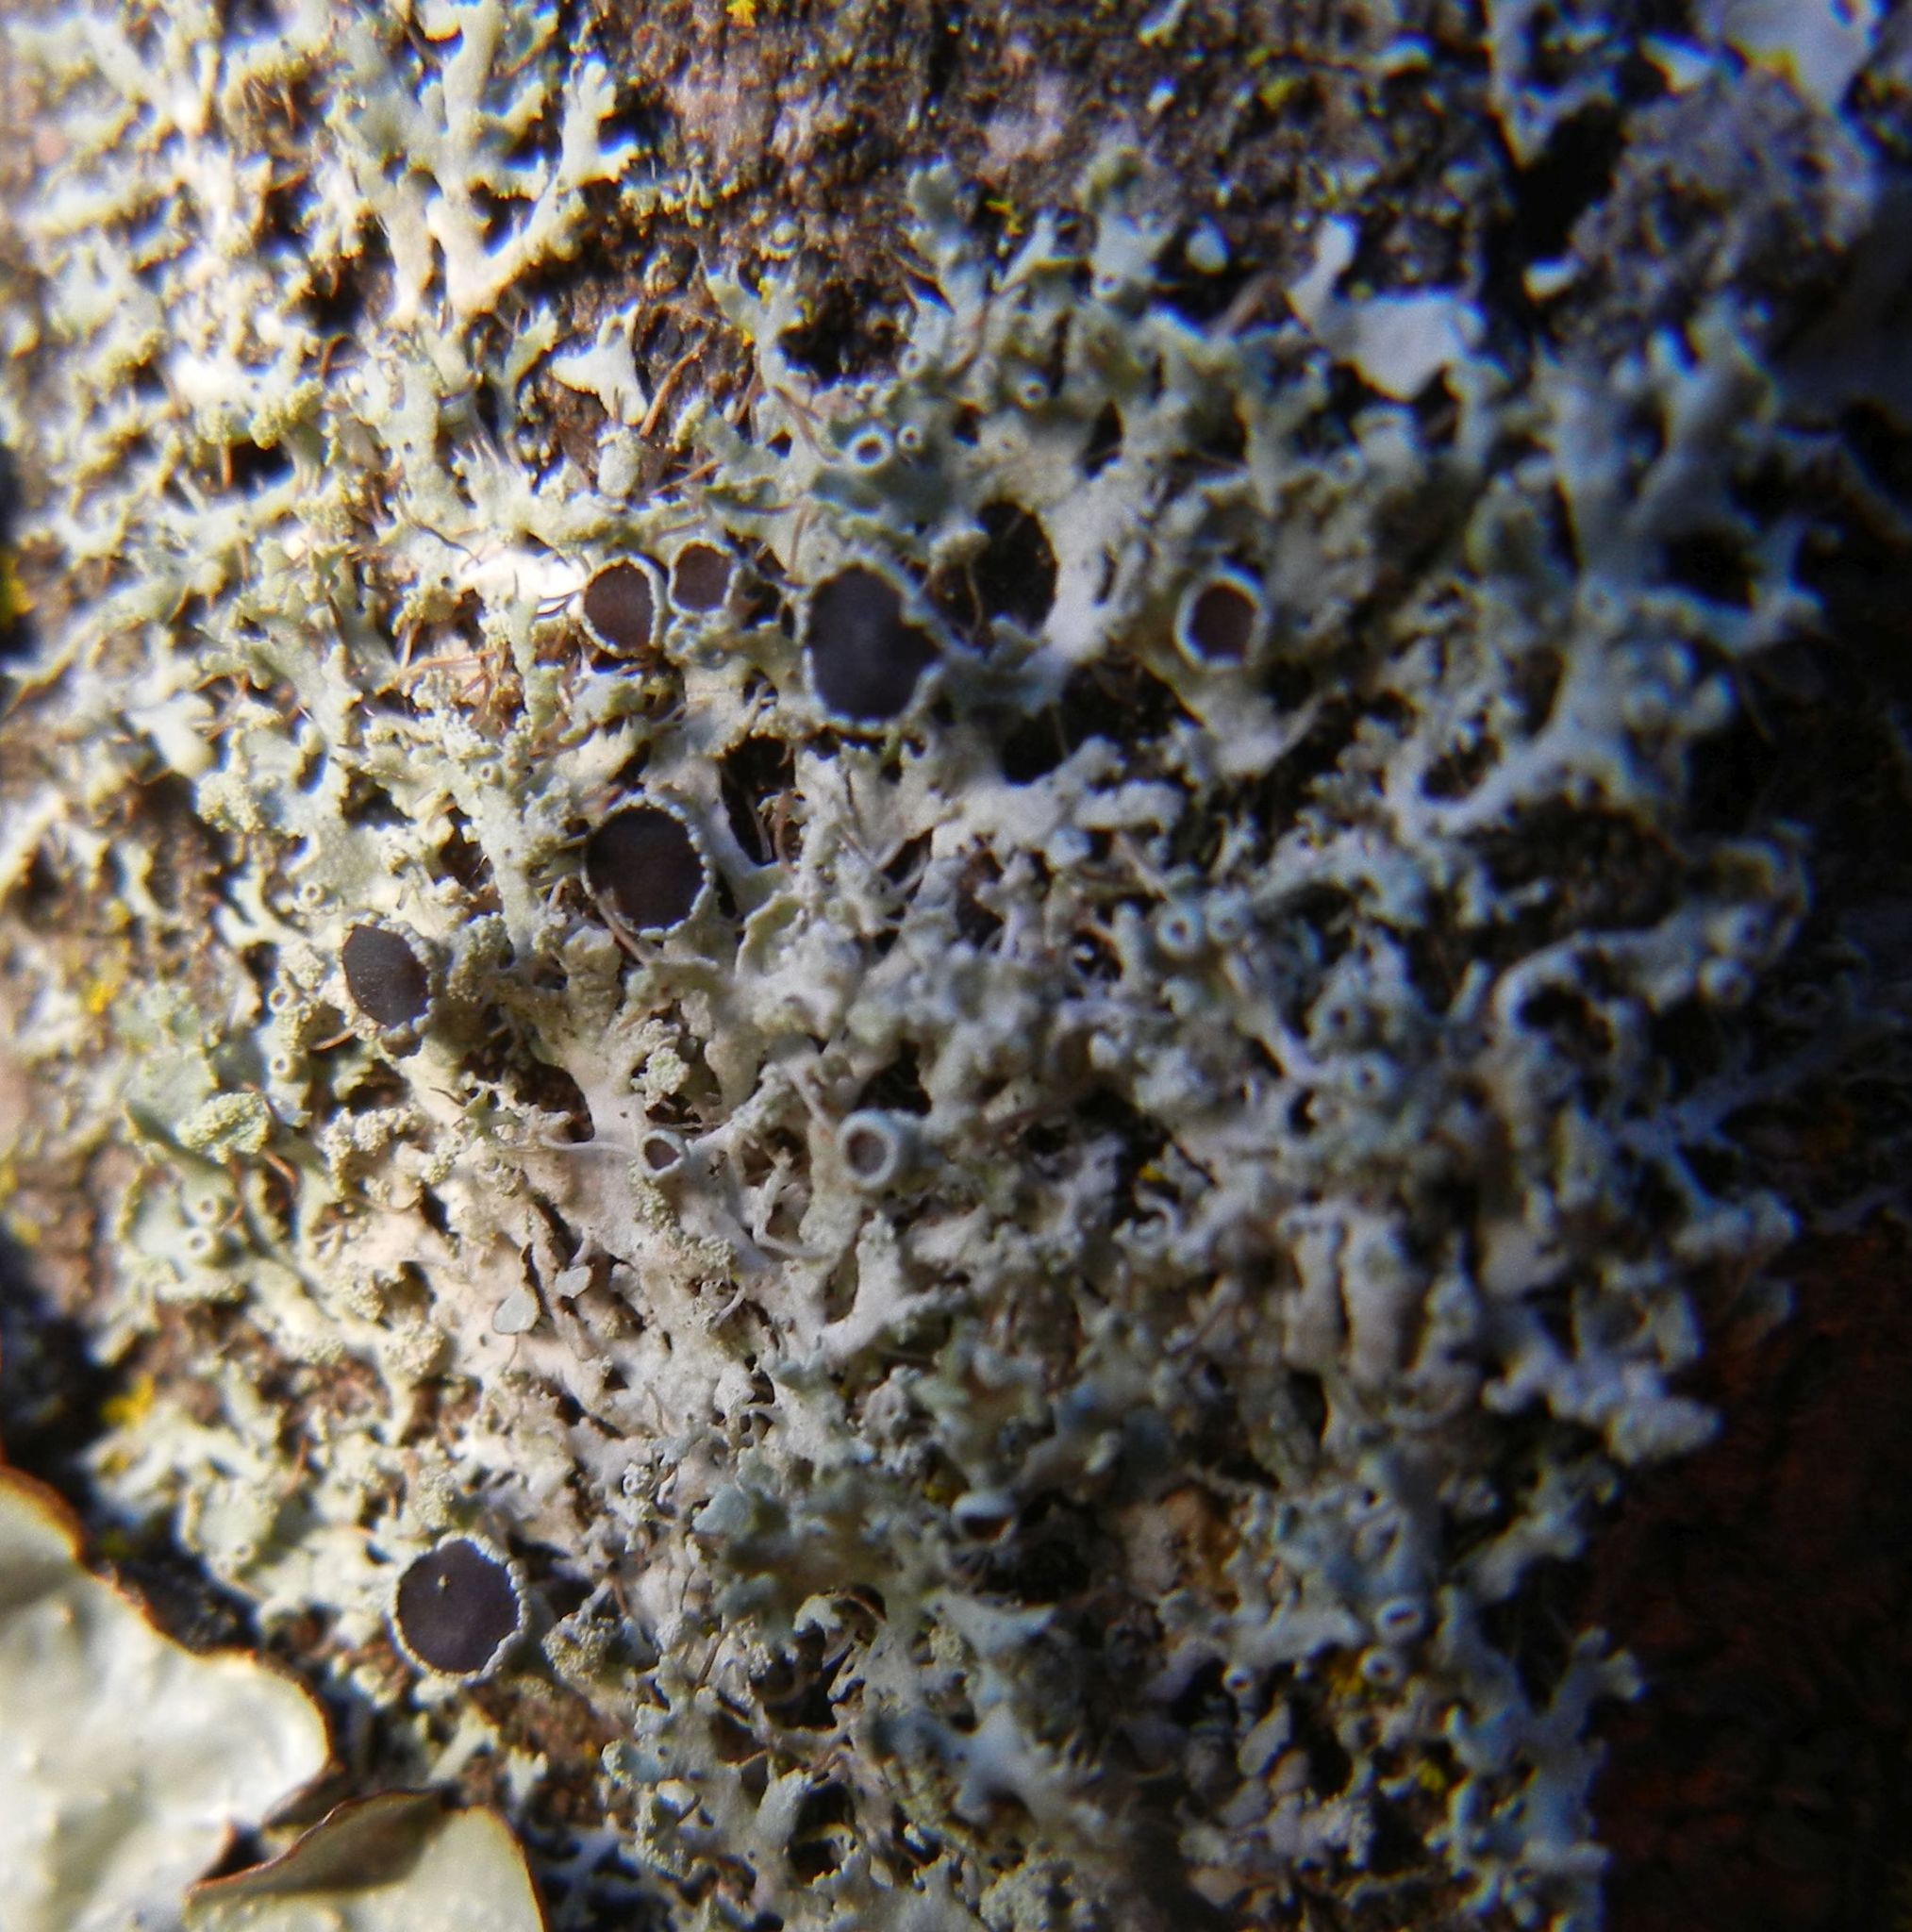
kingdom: Fungi
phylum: Ascomycota
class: Lecanoromycetes
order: Caliciales
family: Physciaceae
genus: Physcia
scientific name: Physcia tenella
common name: Fringed rosette lichen
